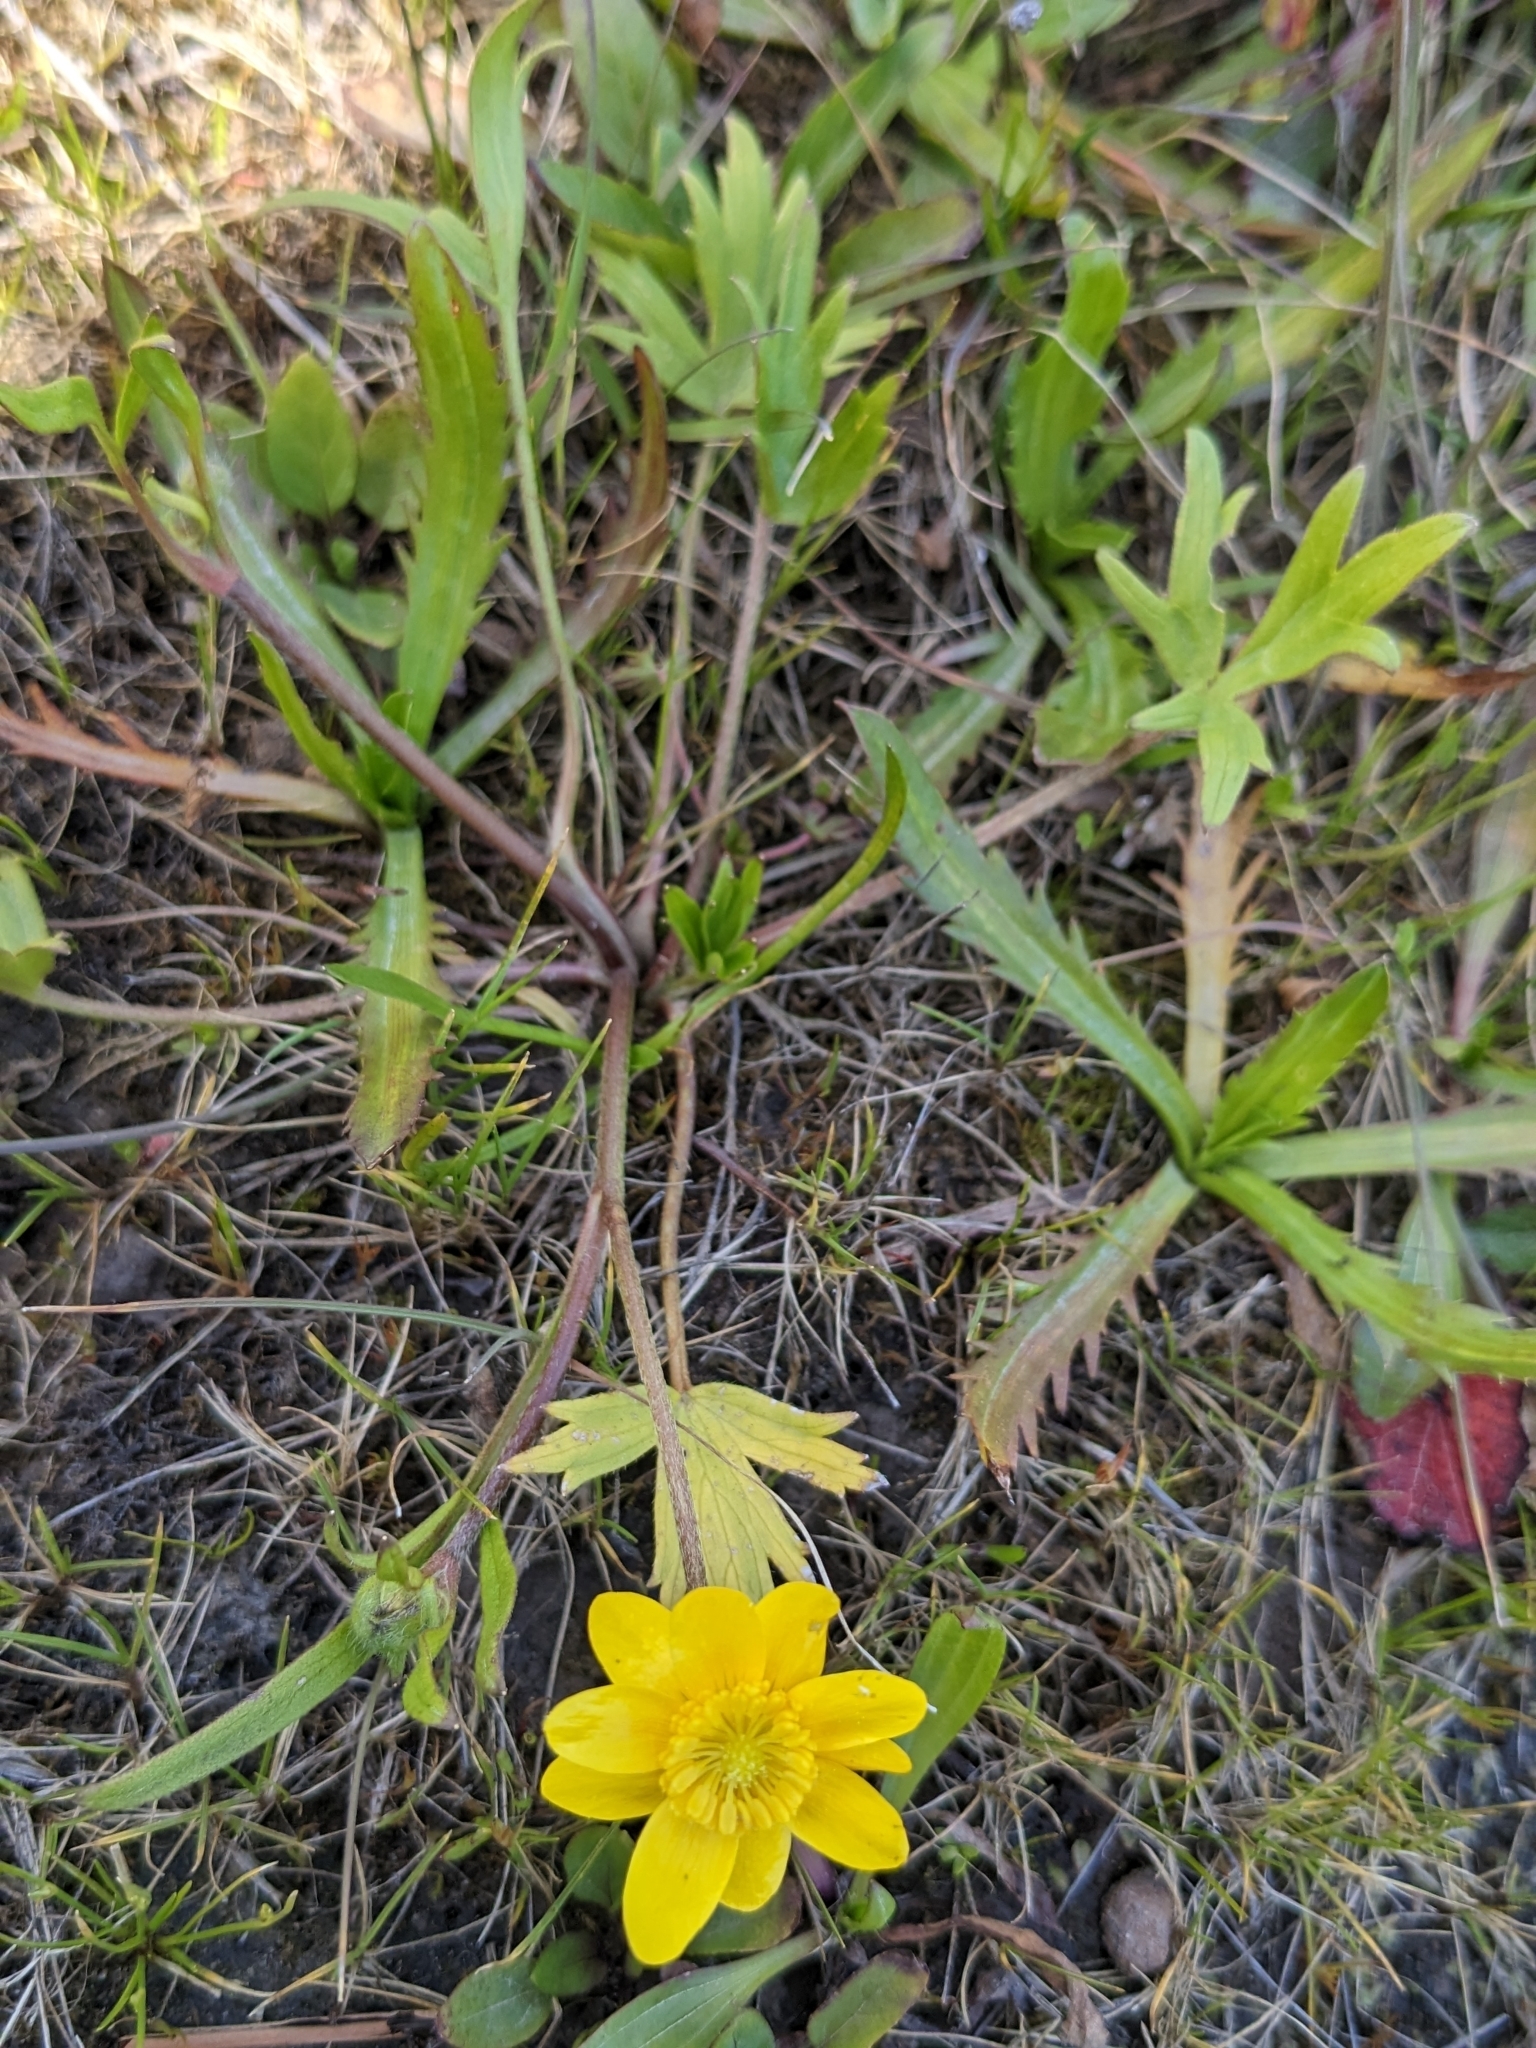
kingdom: Plantae
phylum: Tracheophyta
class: Magnoliopsida
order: Ranunculales
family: Ranunculaceae
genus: Ranunculus
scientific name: Ranunculus californicus
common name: California buttercup
